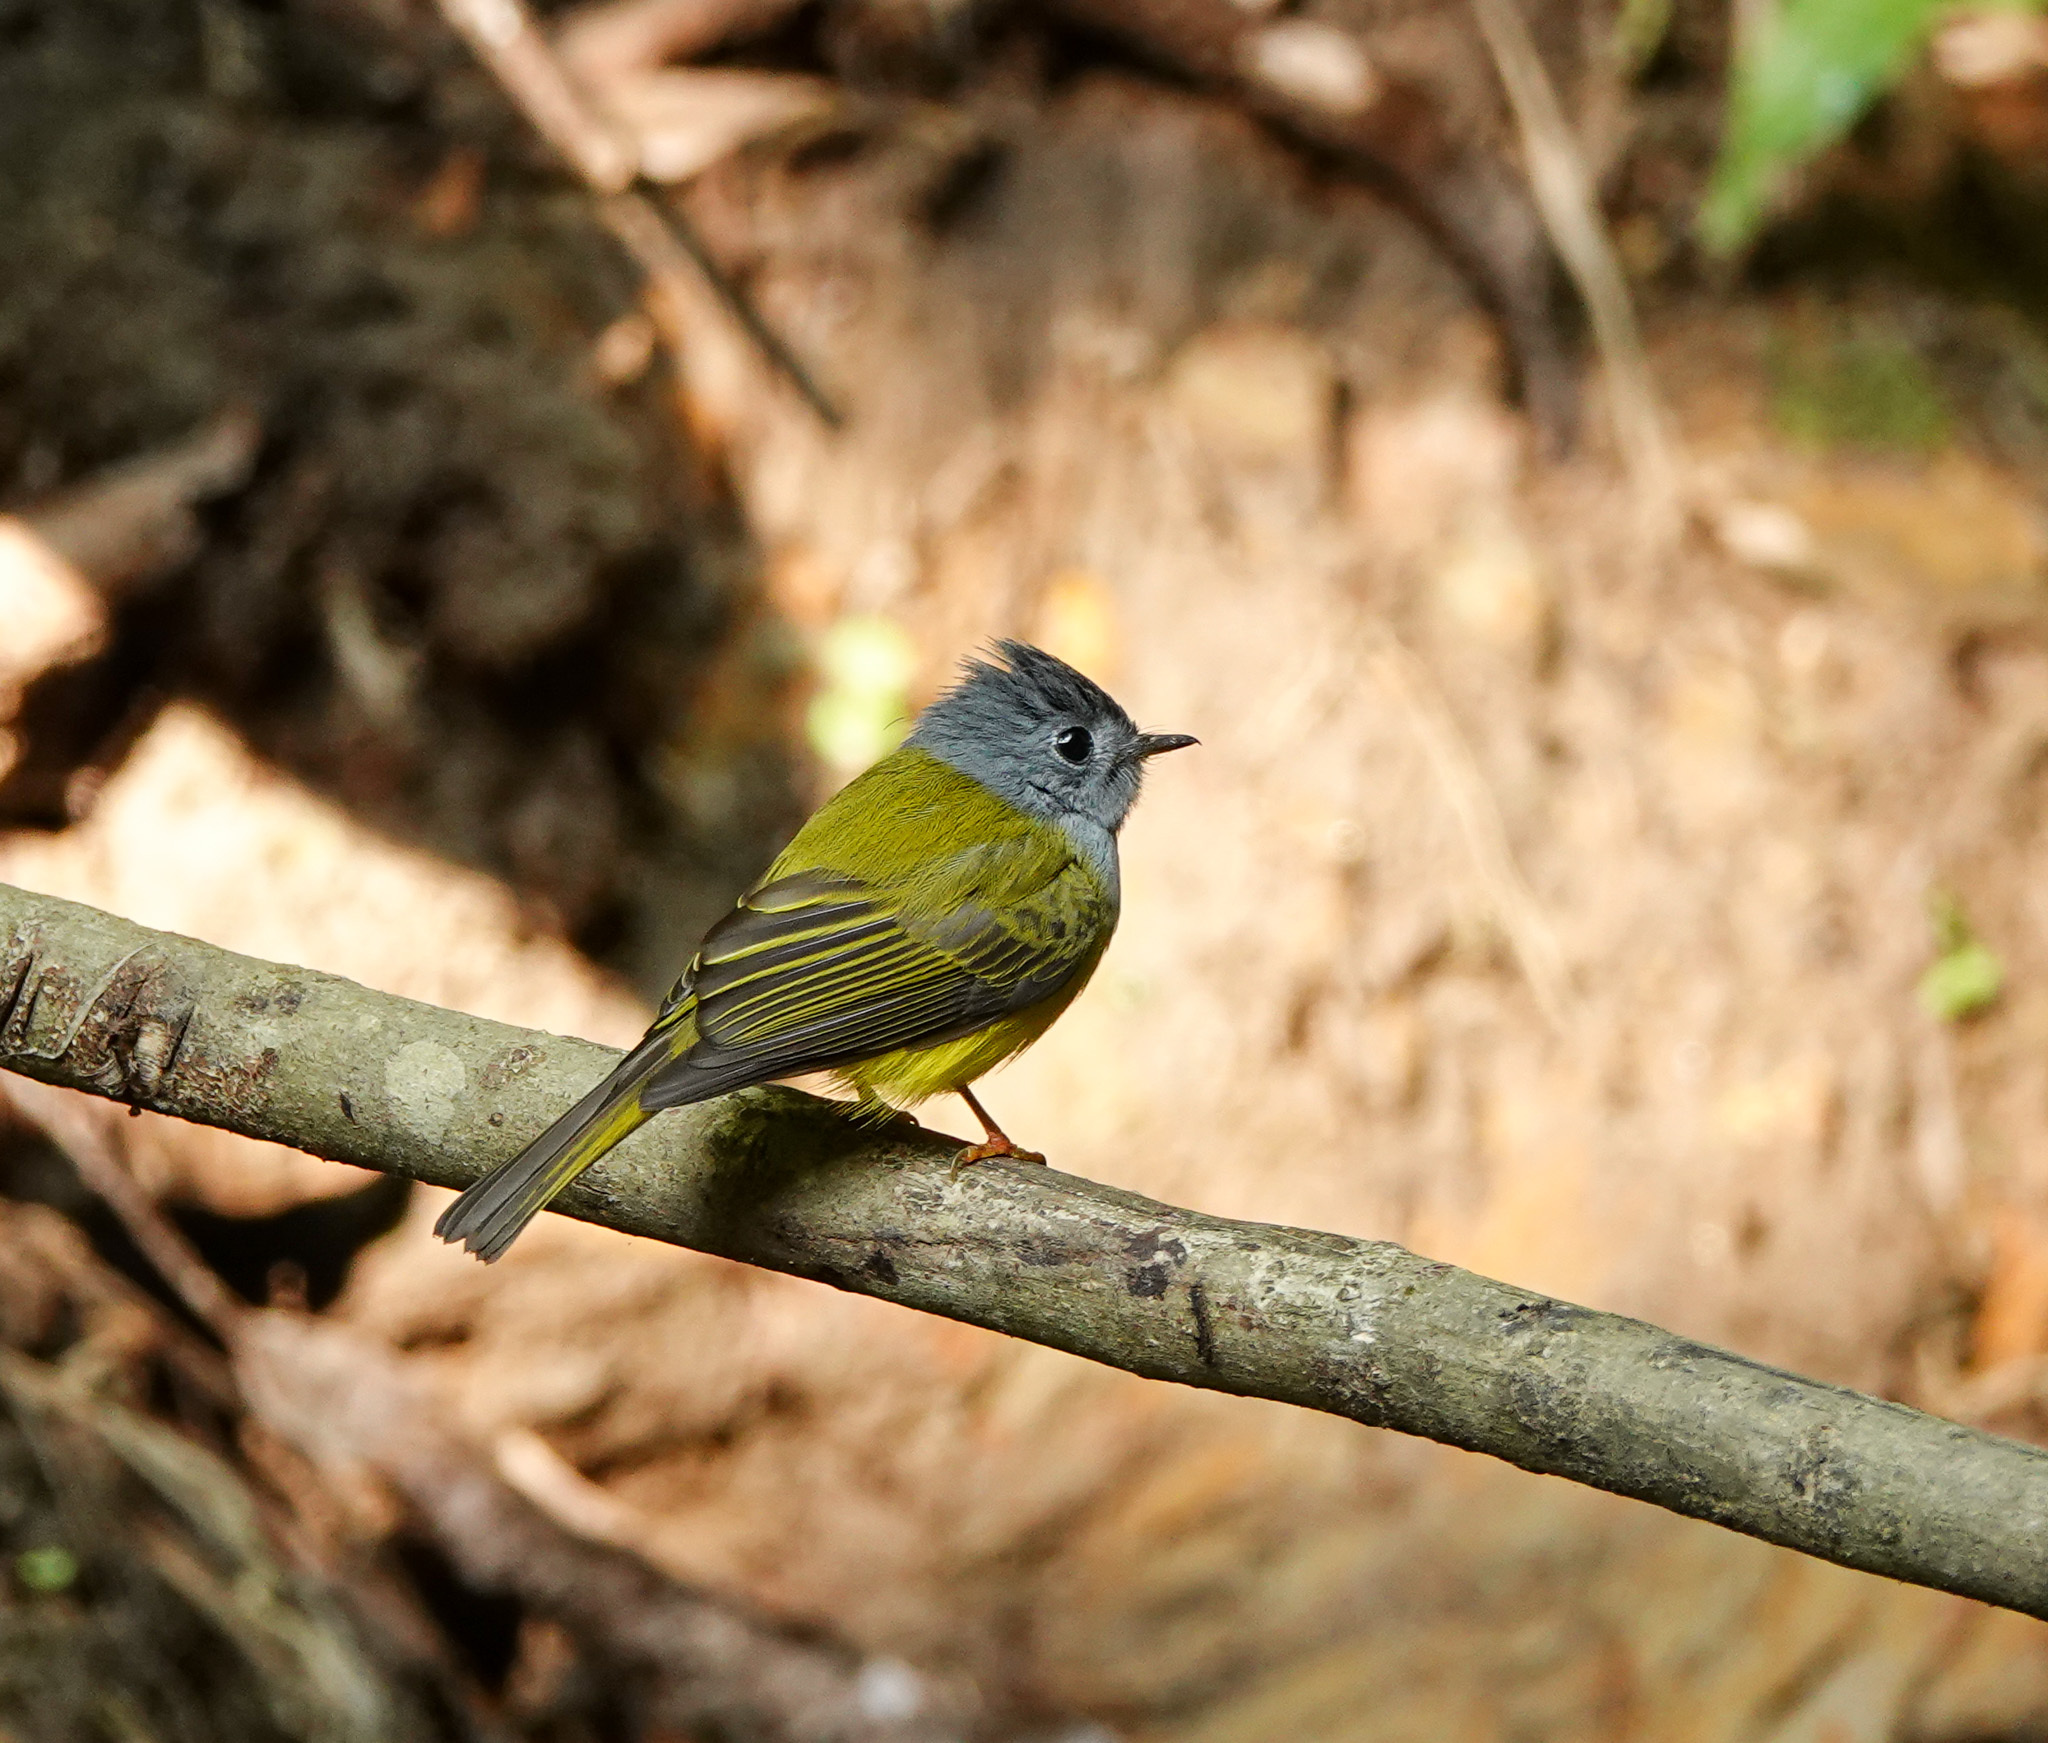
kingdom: Animalia
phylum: Chordata
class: Aves
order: Passeriformes
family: Stenostiridae
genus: Culicicapa
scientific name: Culicicapa ceylonensis
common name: Grey-headed canary-flycatcher
